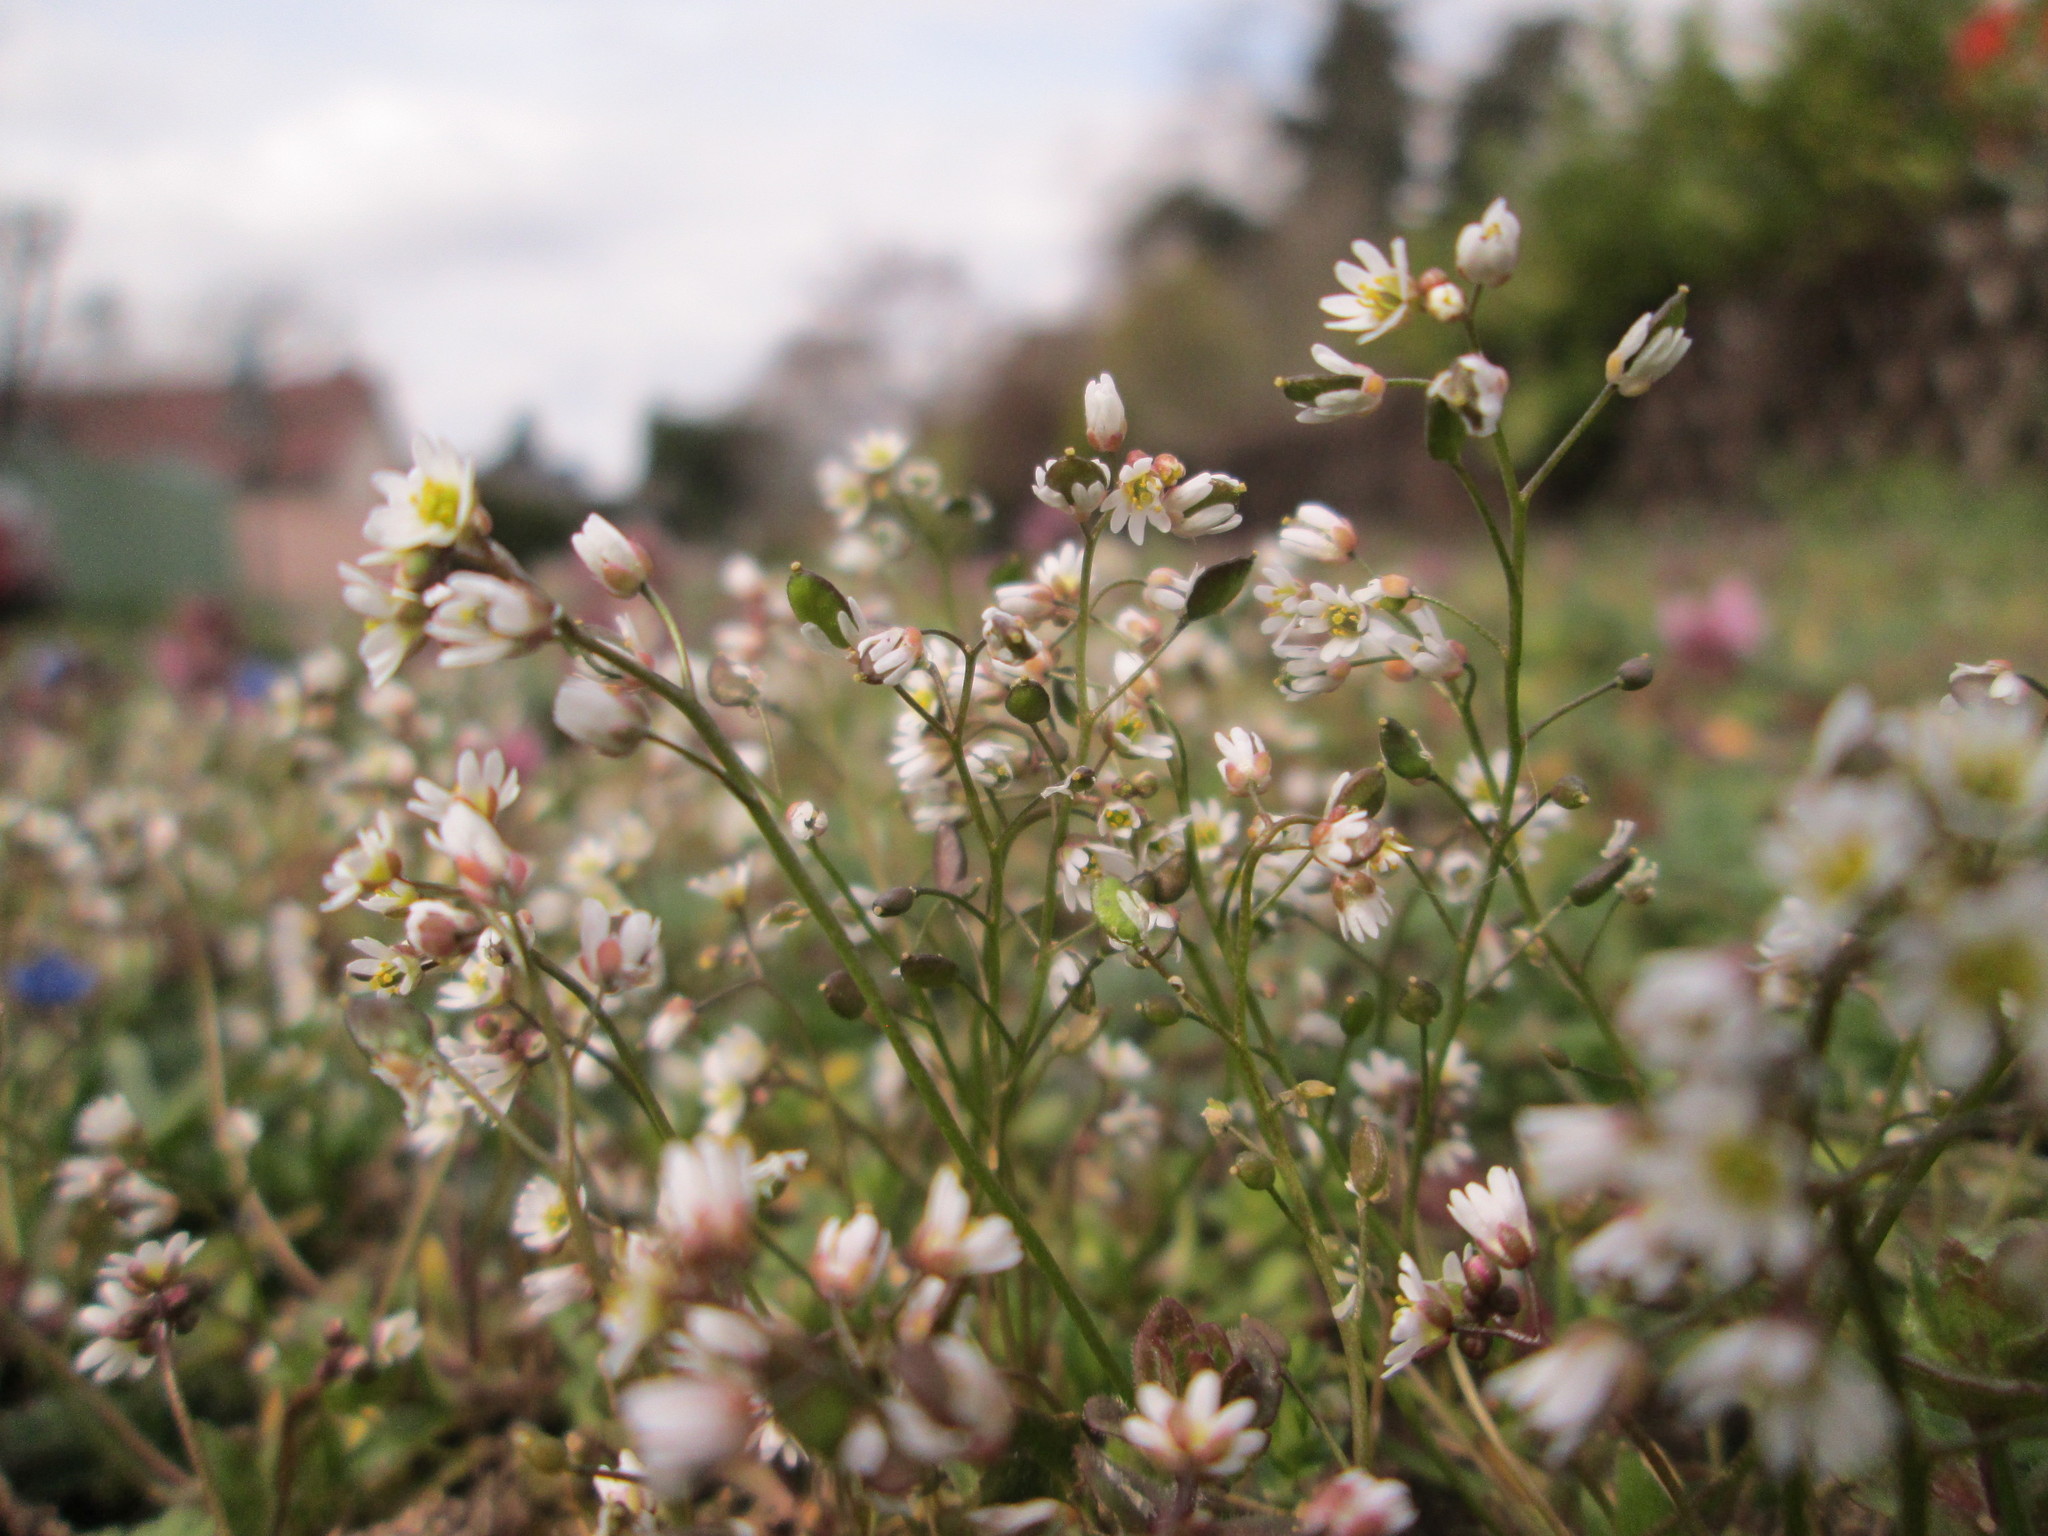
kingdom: Plantae
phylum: Tracheophyta
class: Magnoliopsida
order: Brassicales
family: Brassicaceae
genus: Draba
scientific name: Draba verna
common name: Spring draba
